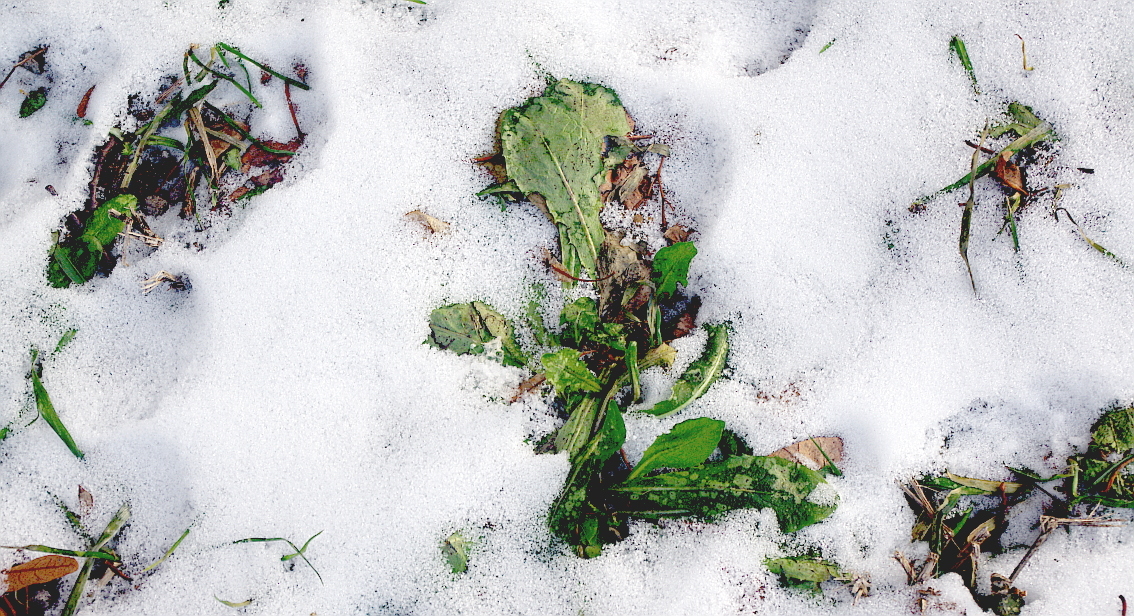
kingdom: Plantae
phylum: Tracheophyta
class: Magnoliopsida
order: Asterales
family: Asteraceae
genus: Taraxacum
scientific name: Taraxacum officinale
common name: Common dandelion
